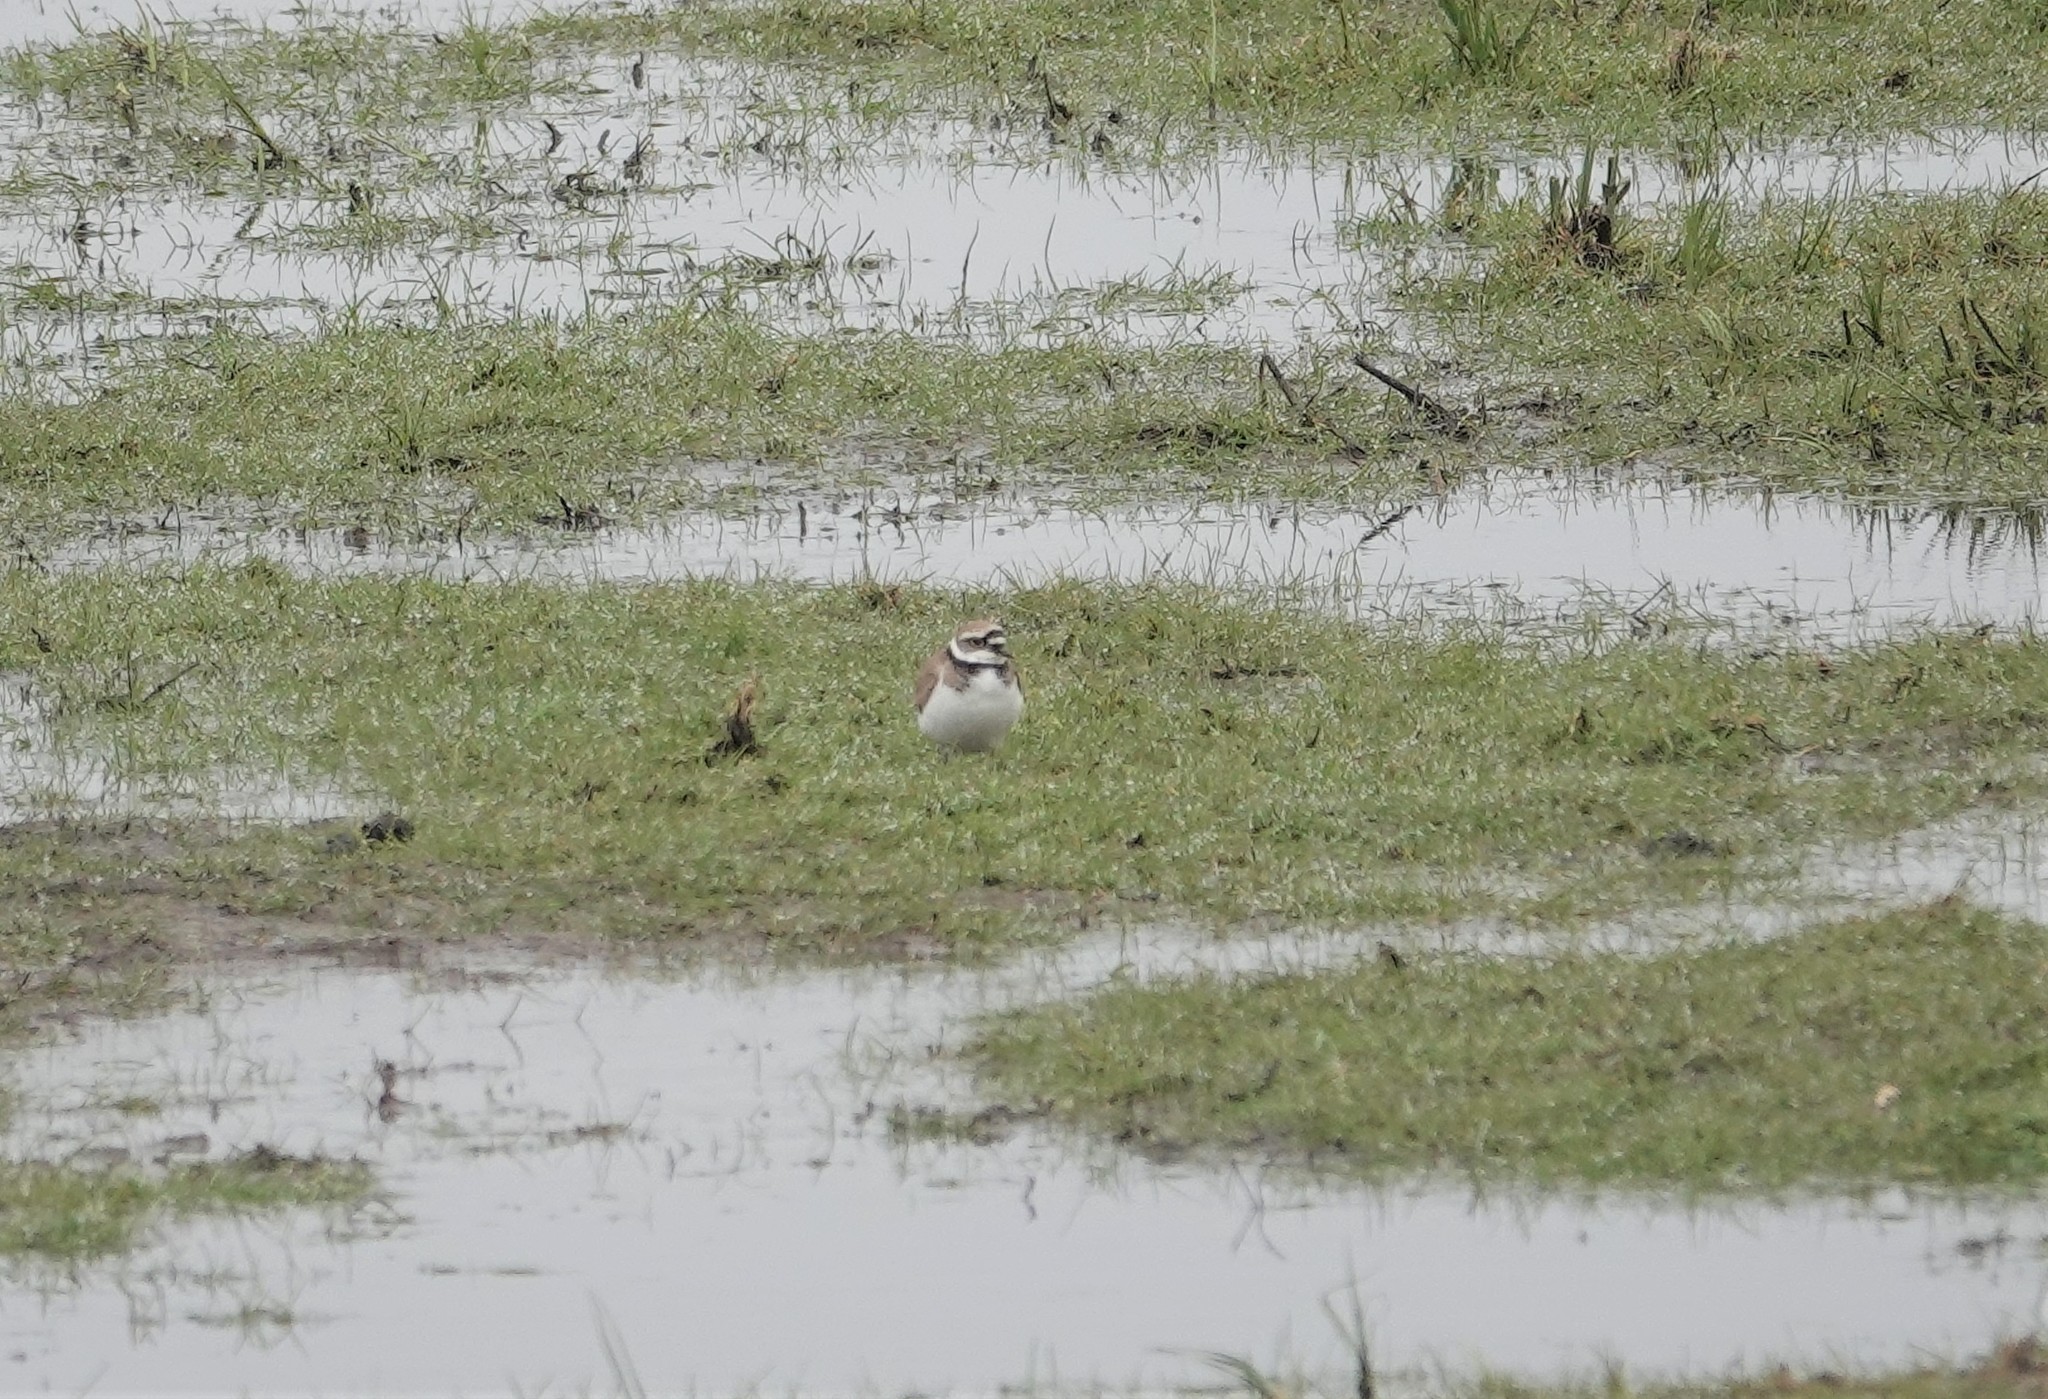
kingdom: Animalia
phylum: Chordata
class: Aves
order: Charadriiformes
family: Charadriidae
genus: Charadrius
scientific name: Charadrius dubius
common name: Little ringed plover
